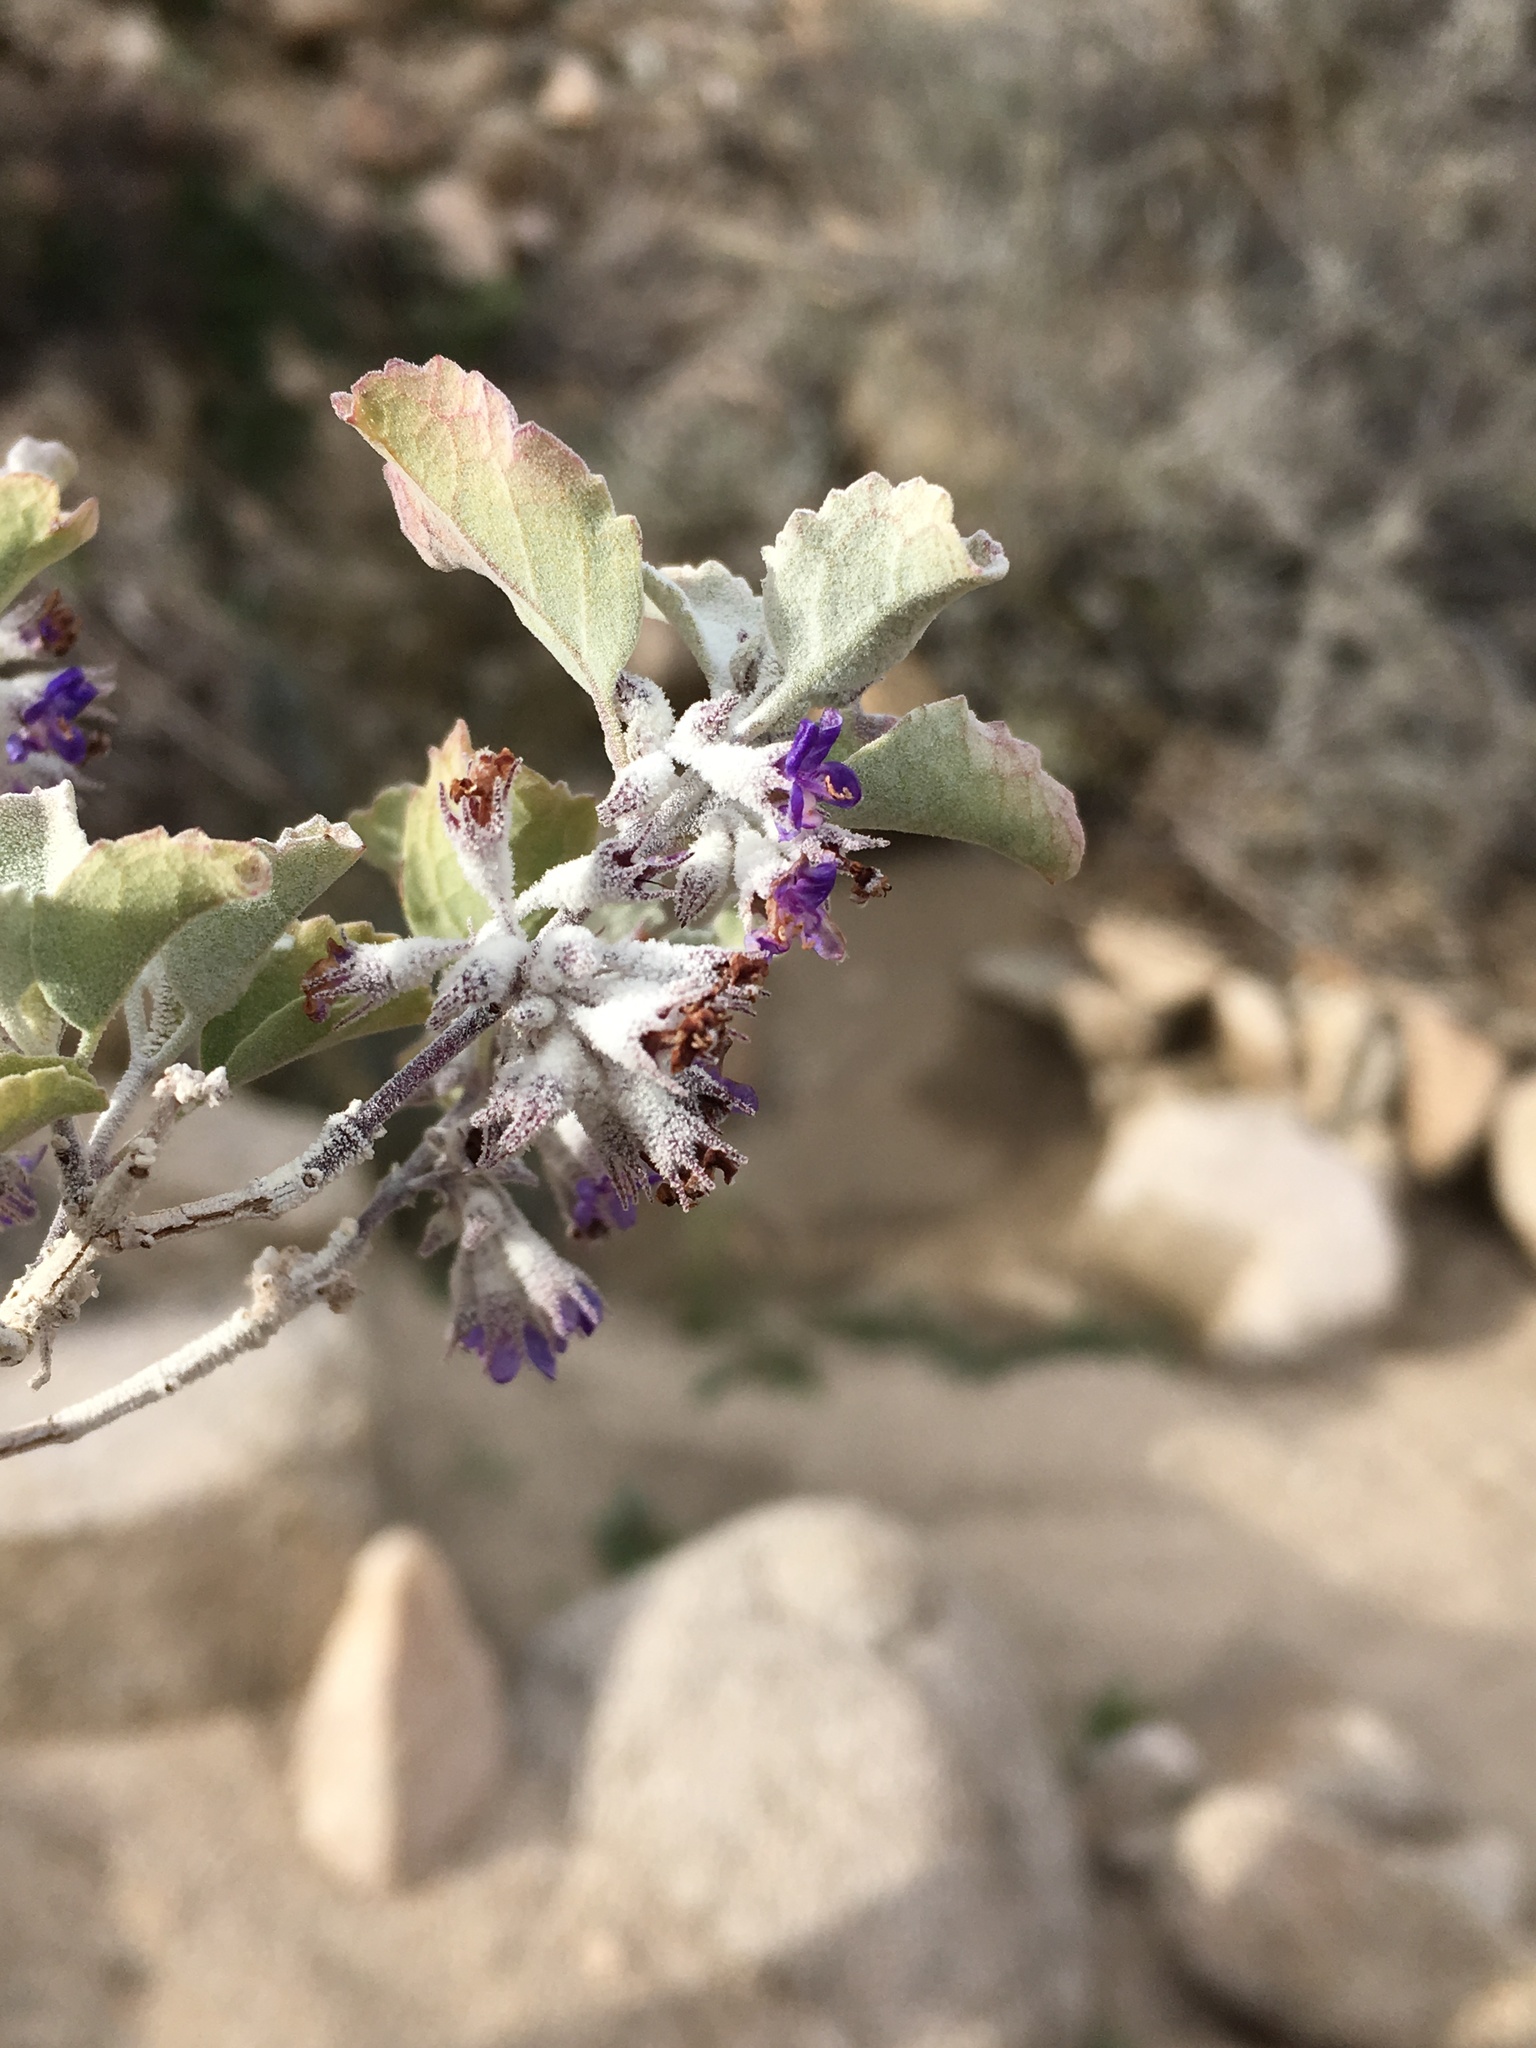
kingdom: Plantae
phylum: Tracheophyta
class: Magnoliopsida
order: Lamiales
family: Lamiaceae
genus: Condea
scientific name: Condea emoryi
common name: Chia
